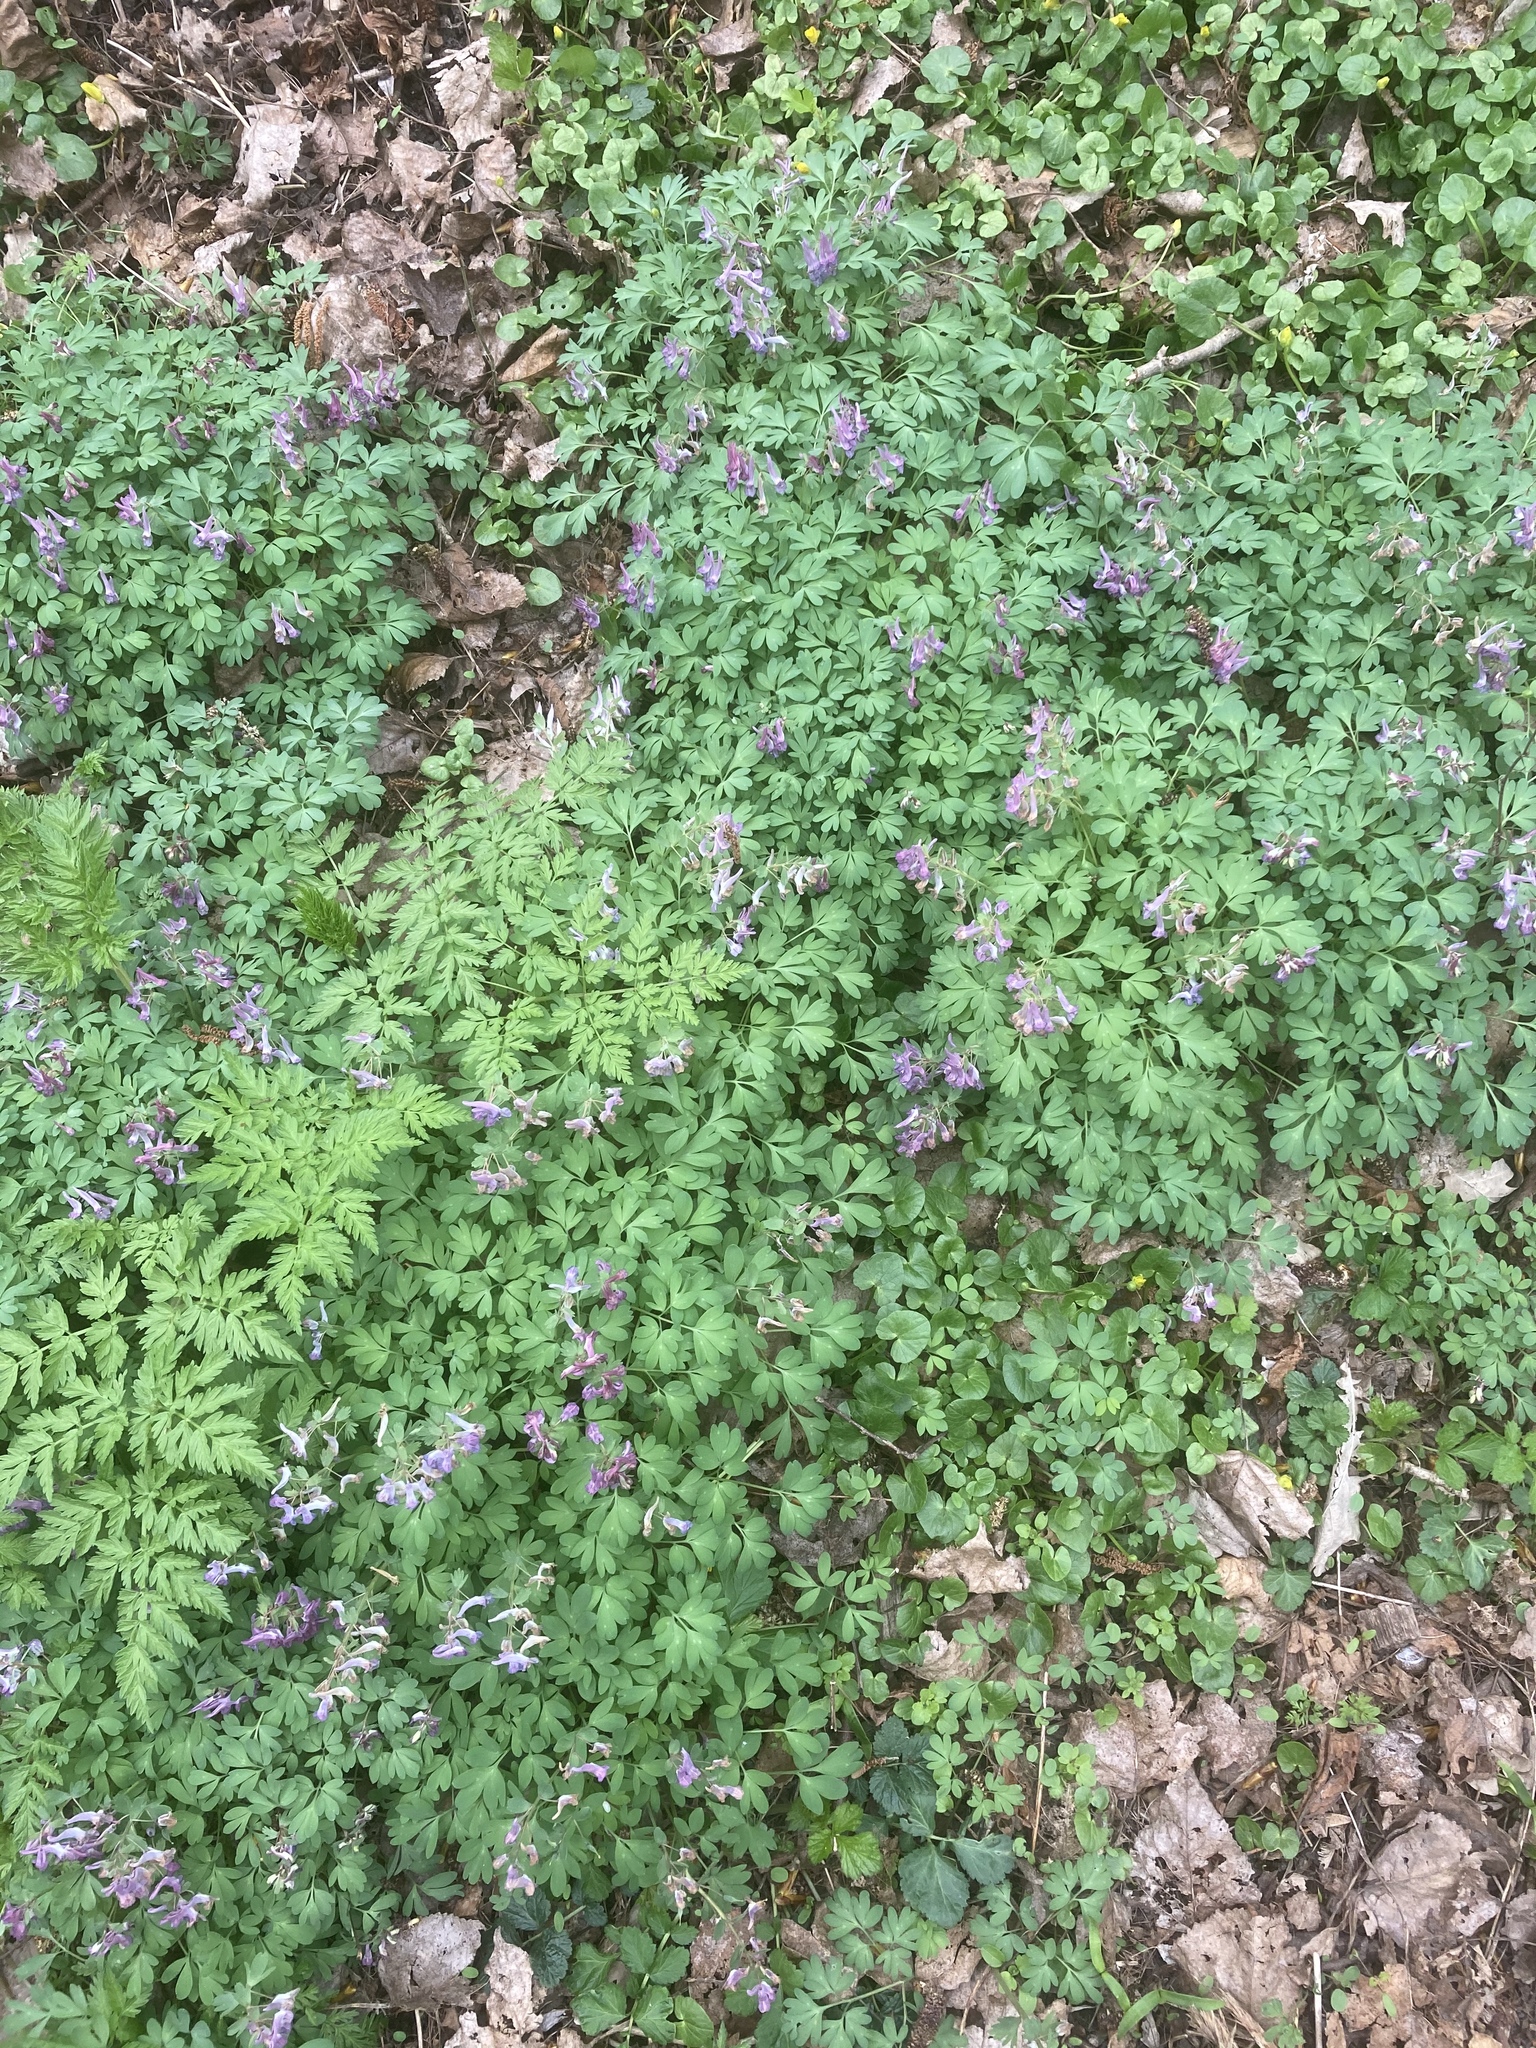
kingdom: Plantae
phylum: Tracheophyta
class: Magnoliopsida
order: Ranunculales
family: Ranunculaceae
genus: Ficaria
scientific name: Ficaria verna
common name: Lesser celandine
